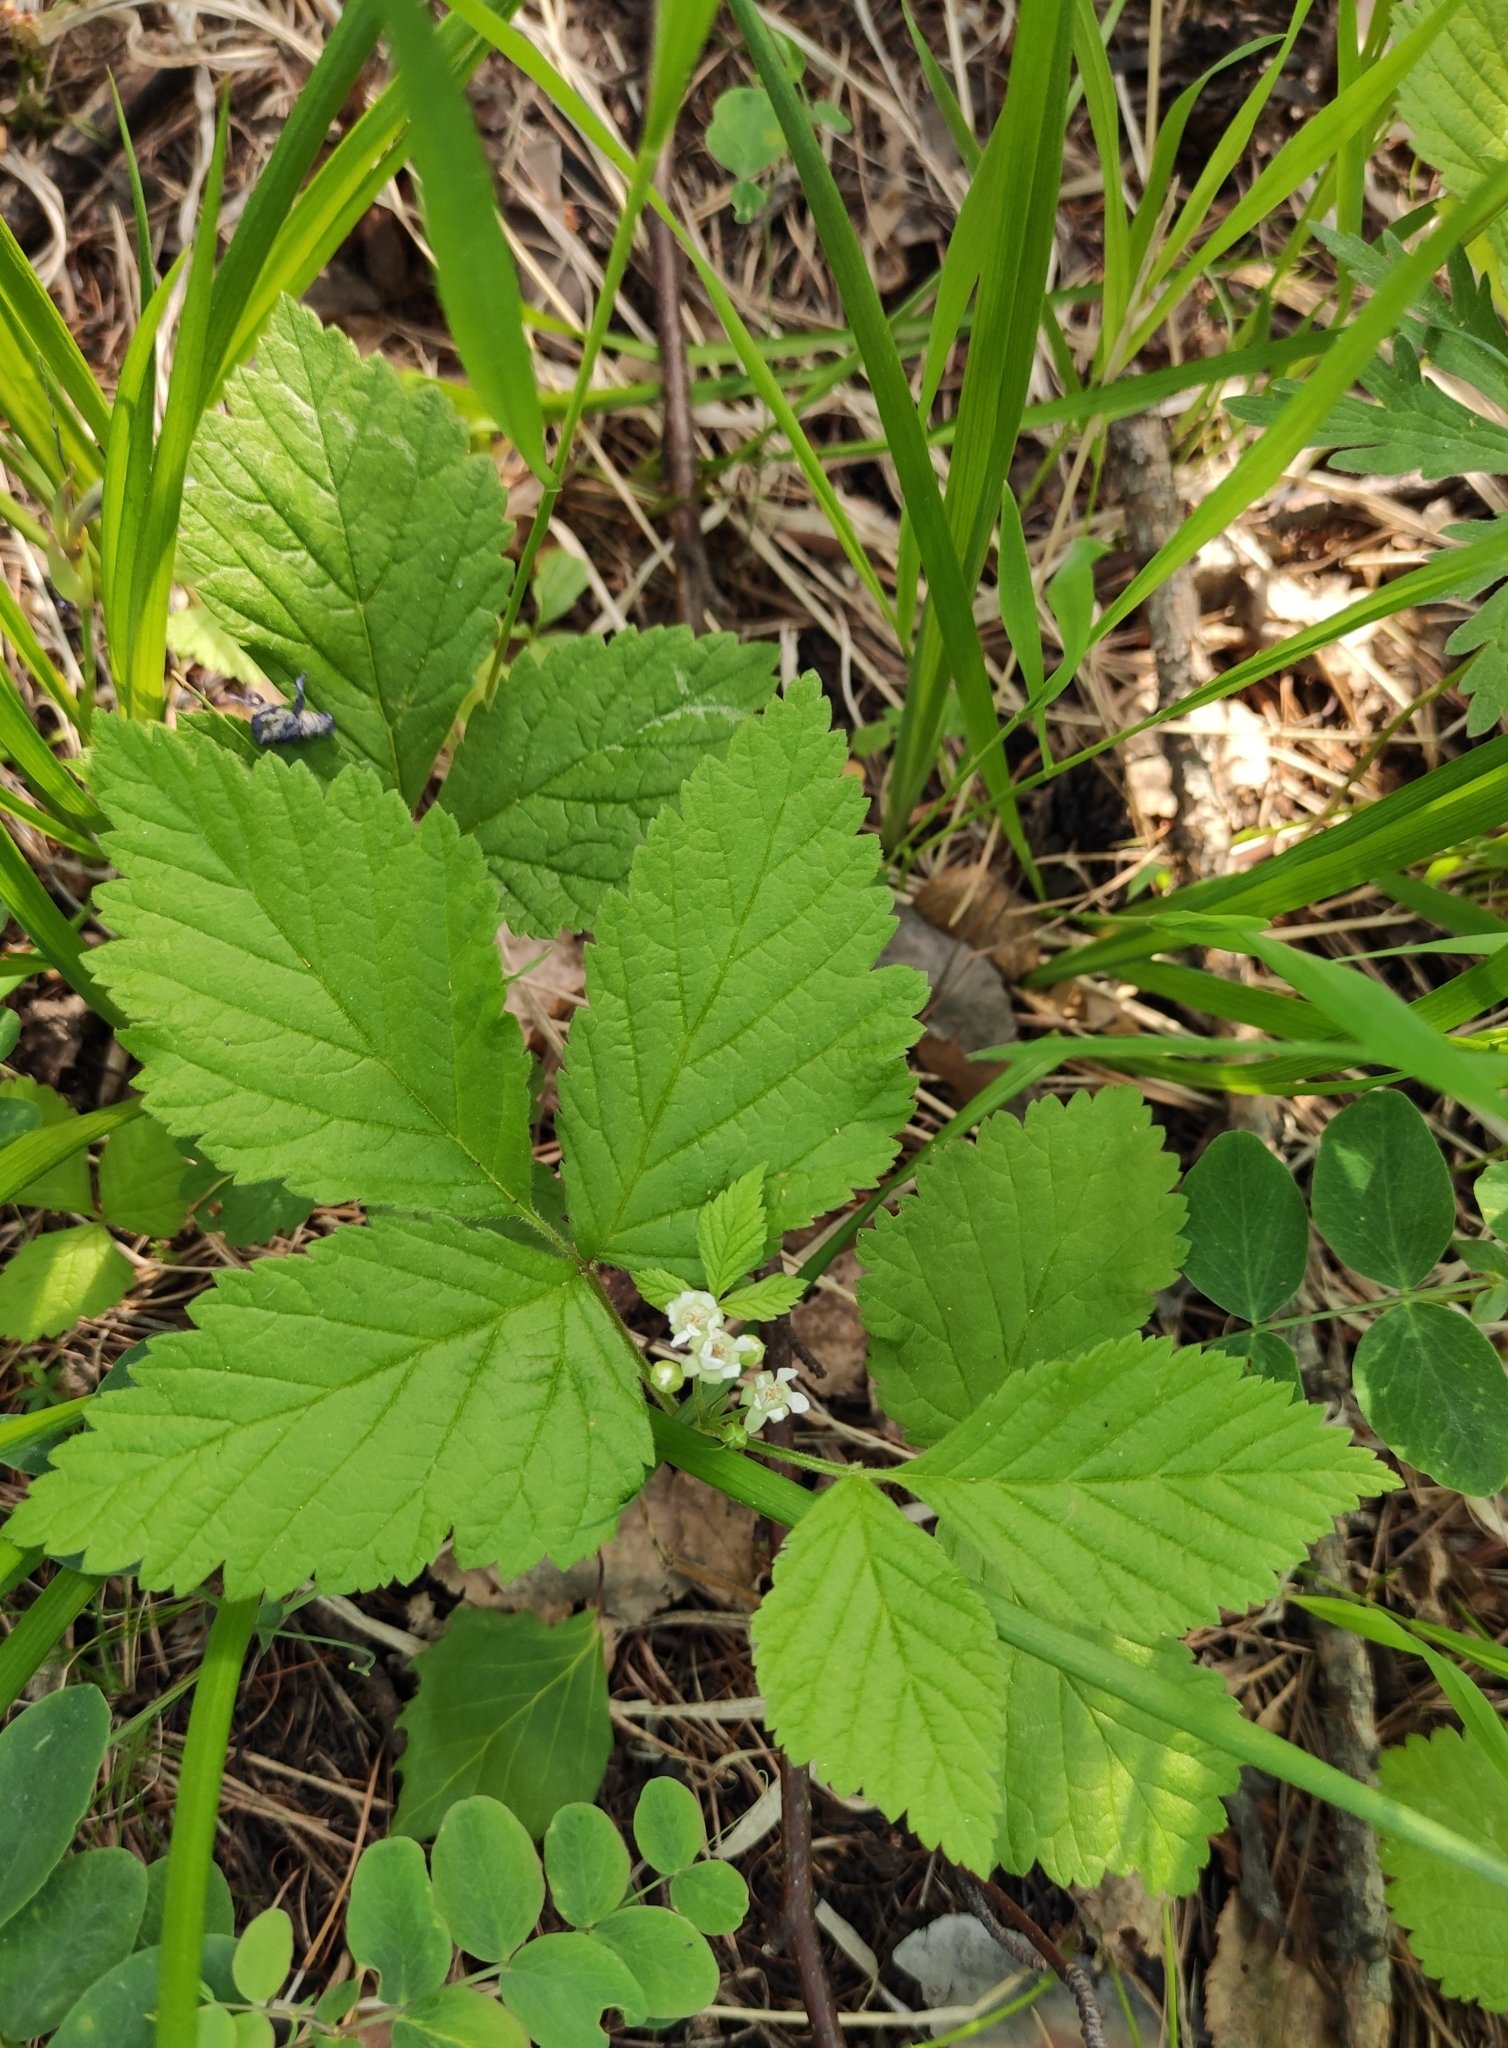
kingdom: Plantae
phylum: Tracheophyta
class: Magnoliopsida
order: Rosales
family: Rosaceae
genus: Rubus
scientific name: Rubus saxatilis
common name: Stone bramble
